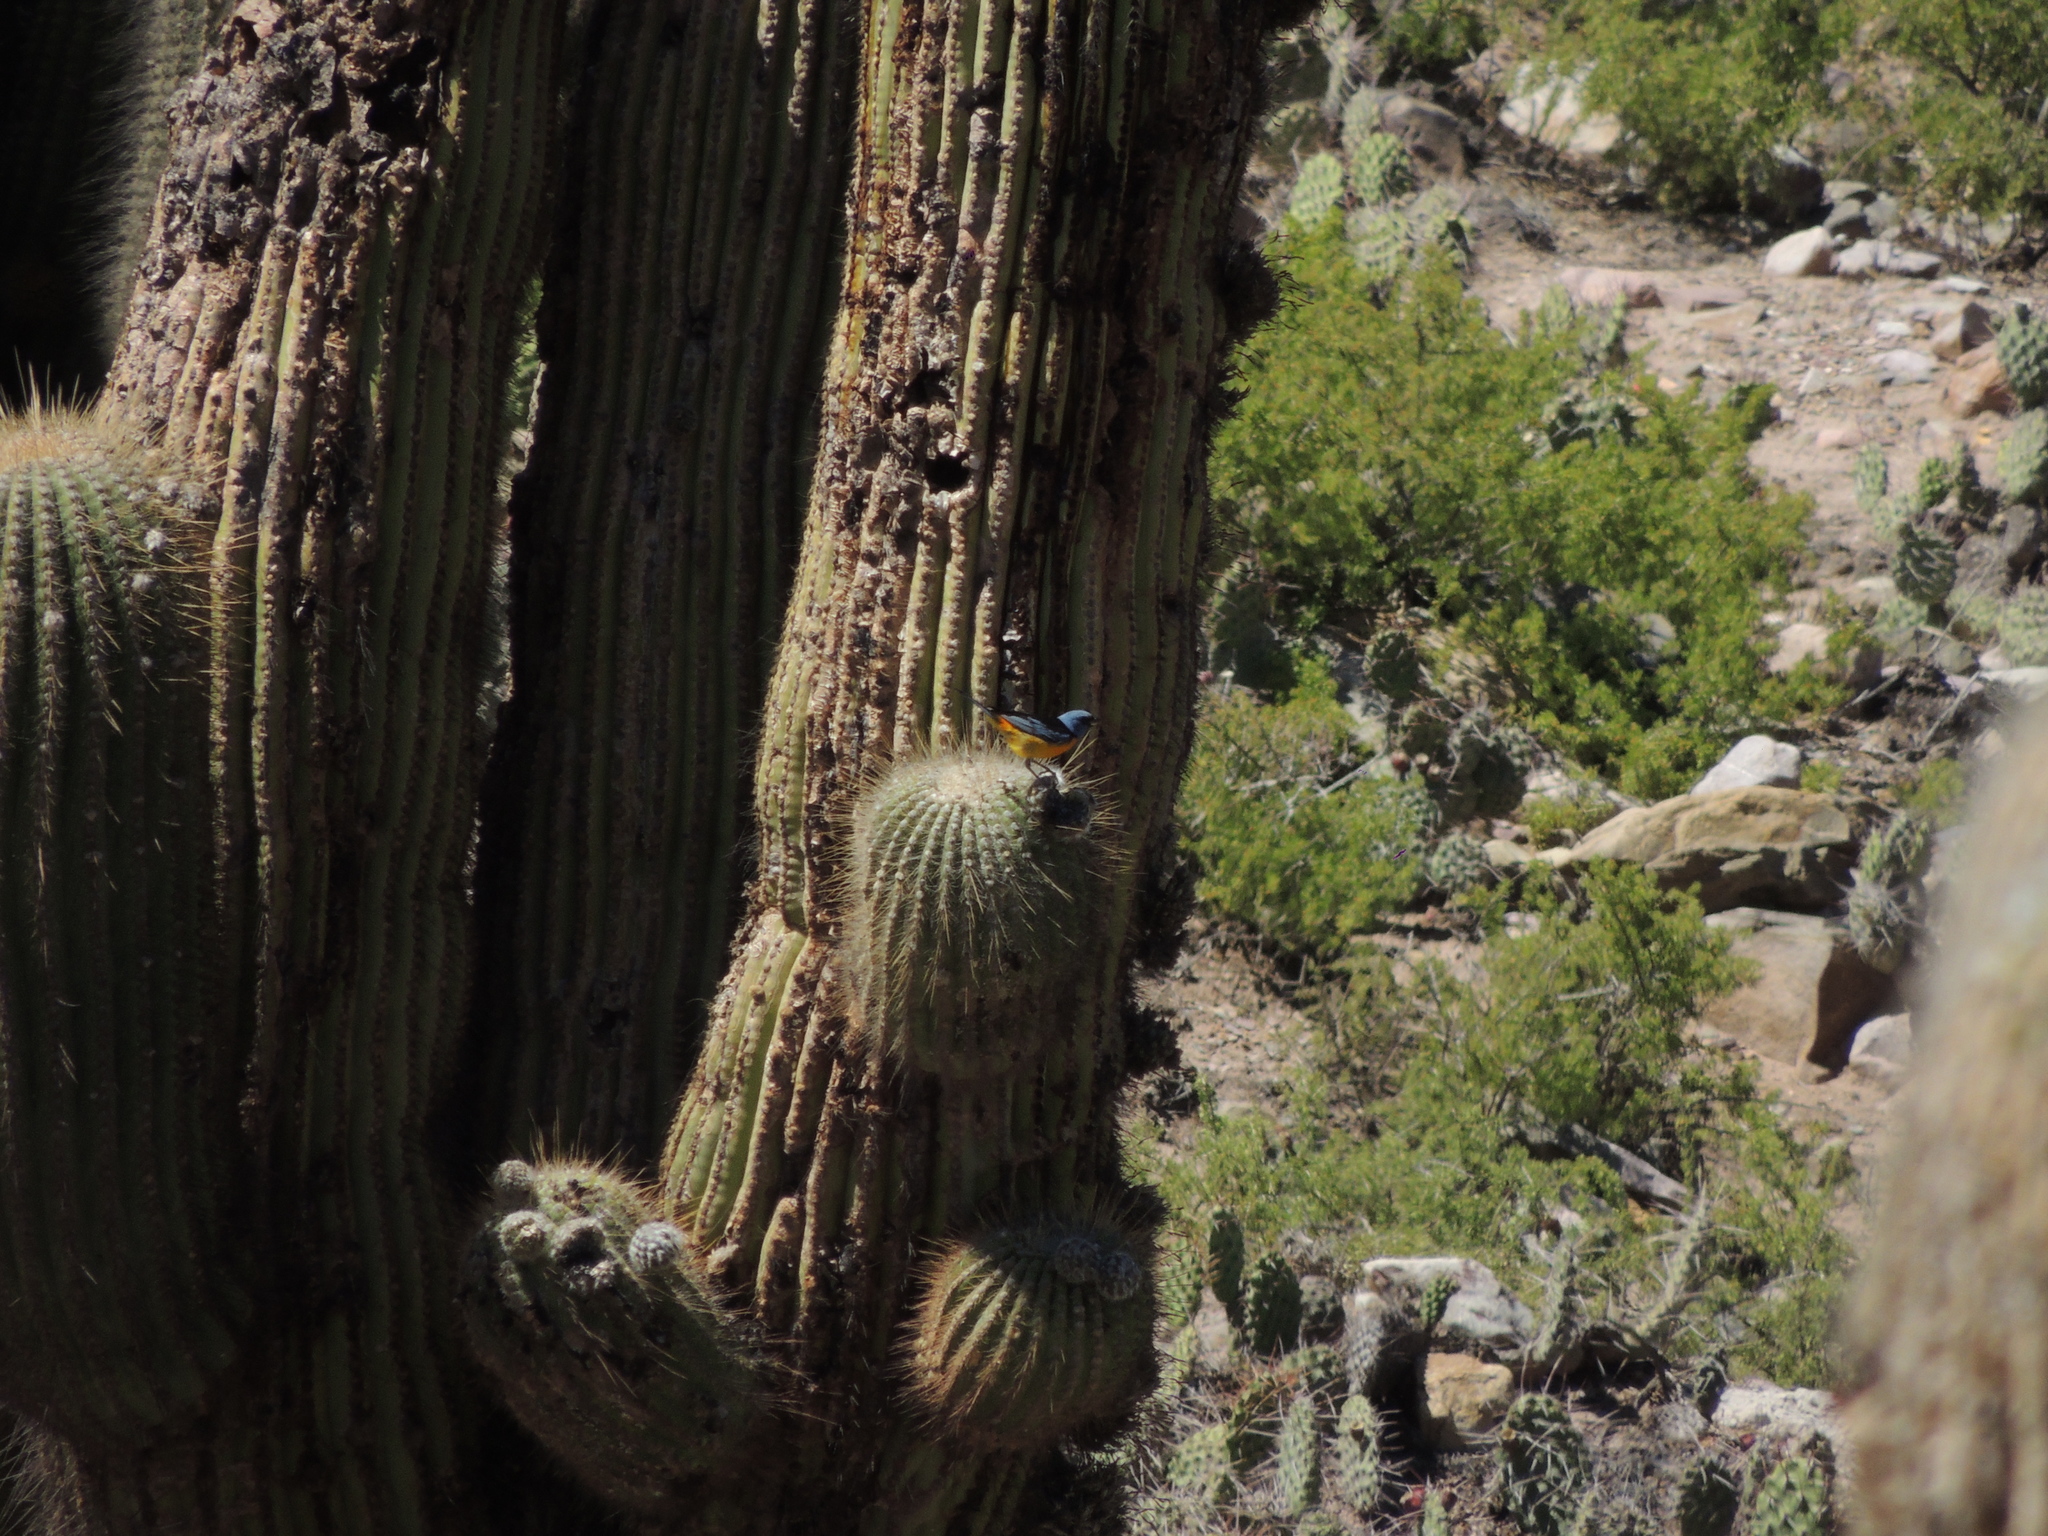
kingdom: Animalia
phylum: Chordata
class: Aves
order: Passeriformes
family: Thraupidae
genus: Rauenia
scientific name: Rauenia bonariensis
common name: Blue-and-yellow tanager
